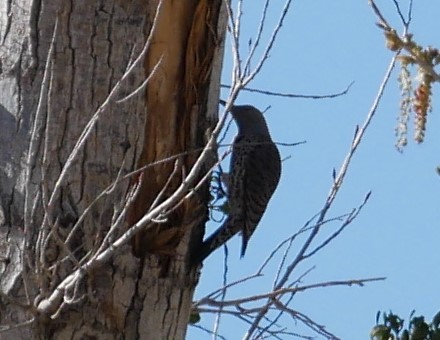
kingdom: Animalia
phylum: Chordata
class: Aves
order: Piciformes
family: Picidae
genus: Colaptes
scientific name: Colaptes auratus
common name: Northern flicker
